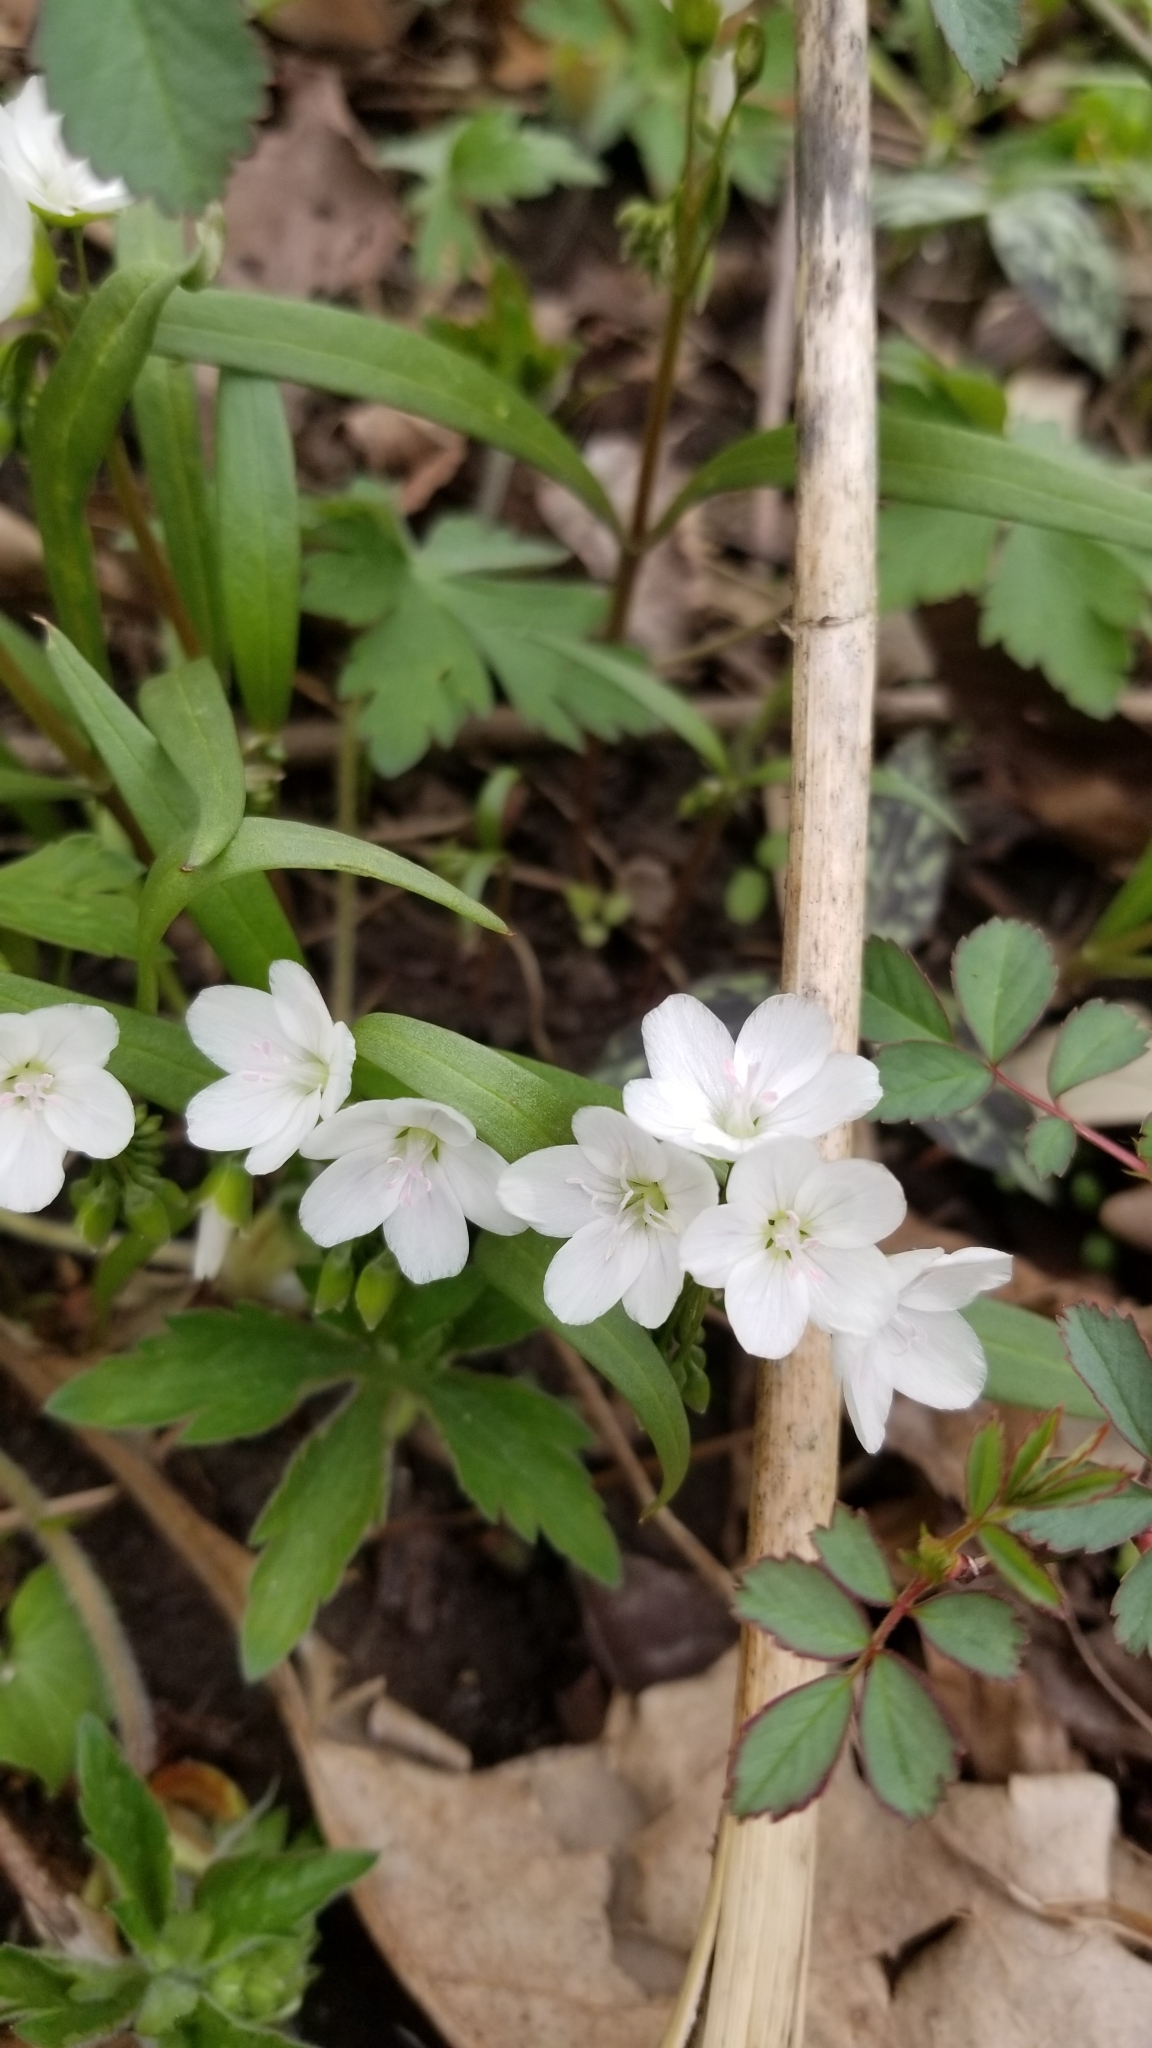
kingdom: Plantae
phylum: Tracheophyta
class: Magnoliopsida
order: Caryophyllales
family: Montiaceae
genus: Claytonia
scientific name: Claytonia virginica
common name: Virginia springbeauty
